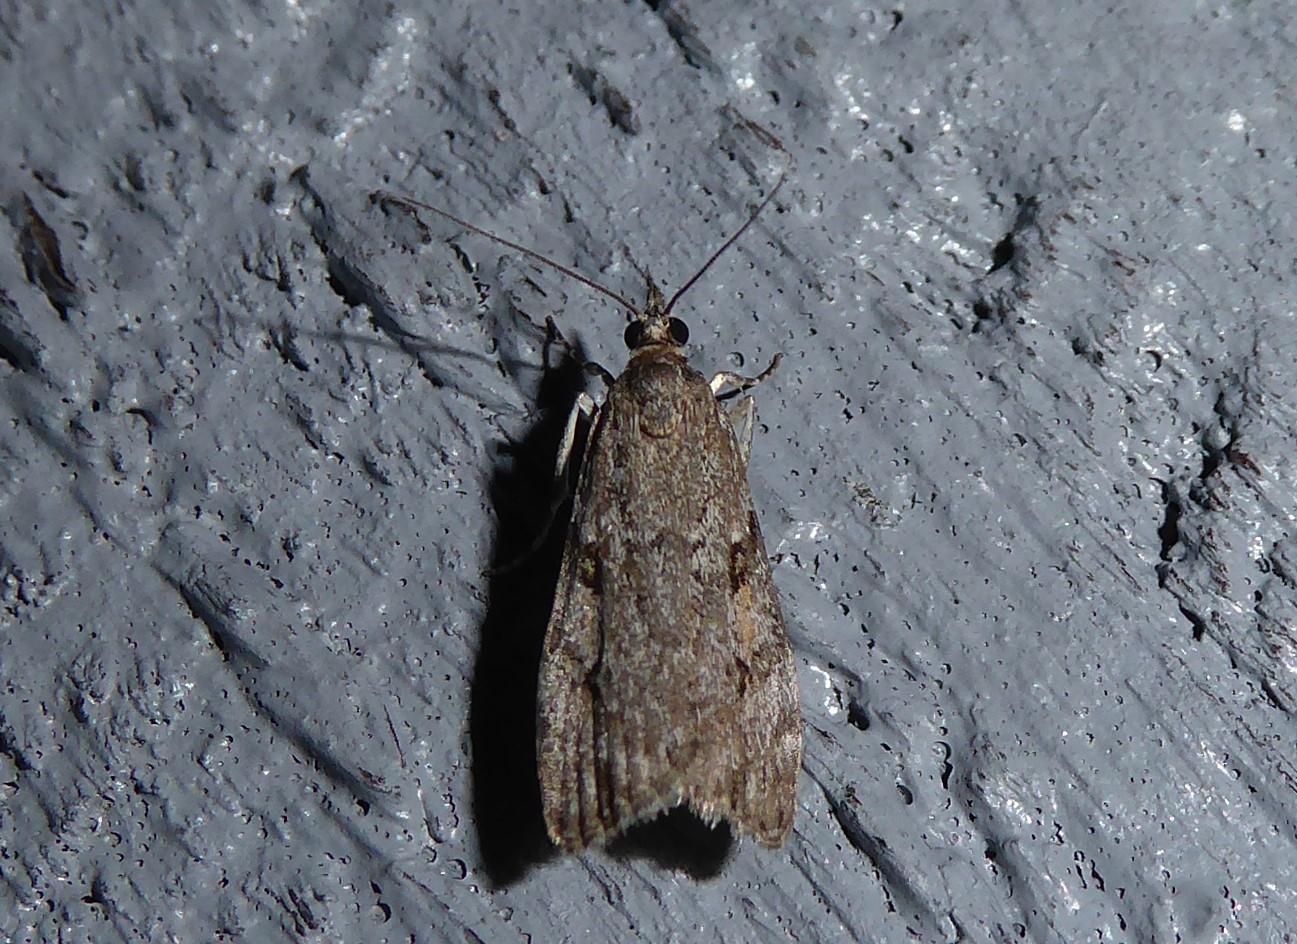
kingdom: Animalia
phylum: Arthropoda
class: Insecta
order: Lepidoptera
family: Crambidae
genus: Eudonia
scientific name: Eudonia cymatias
